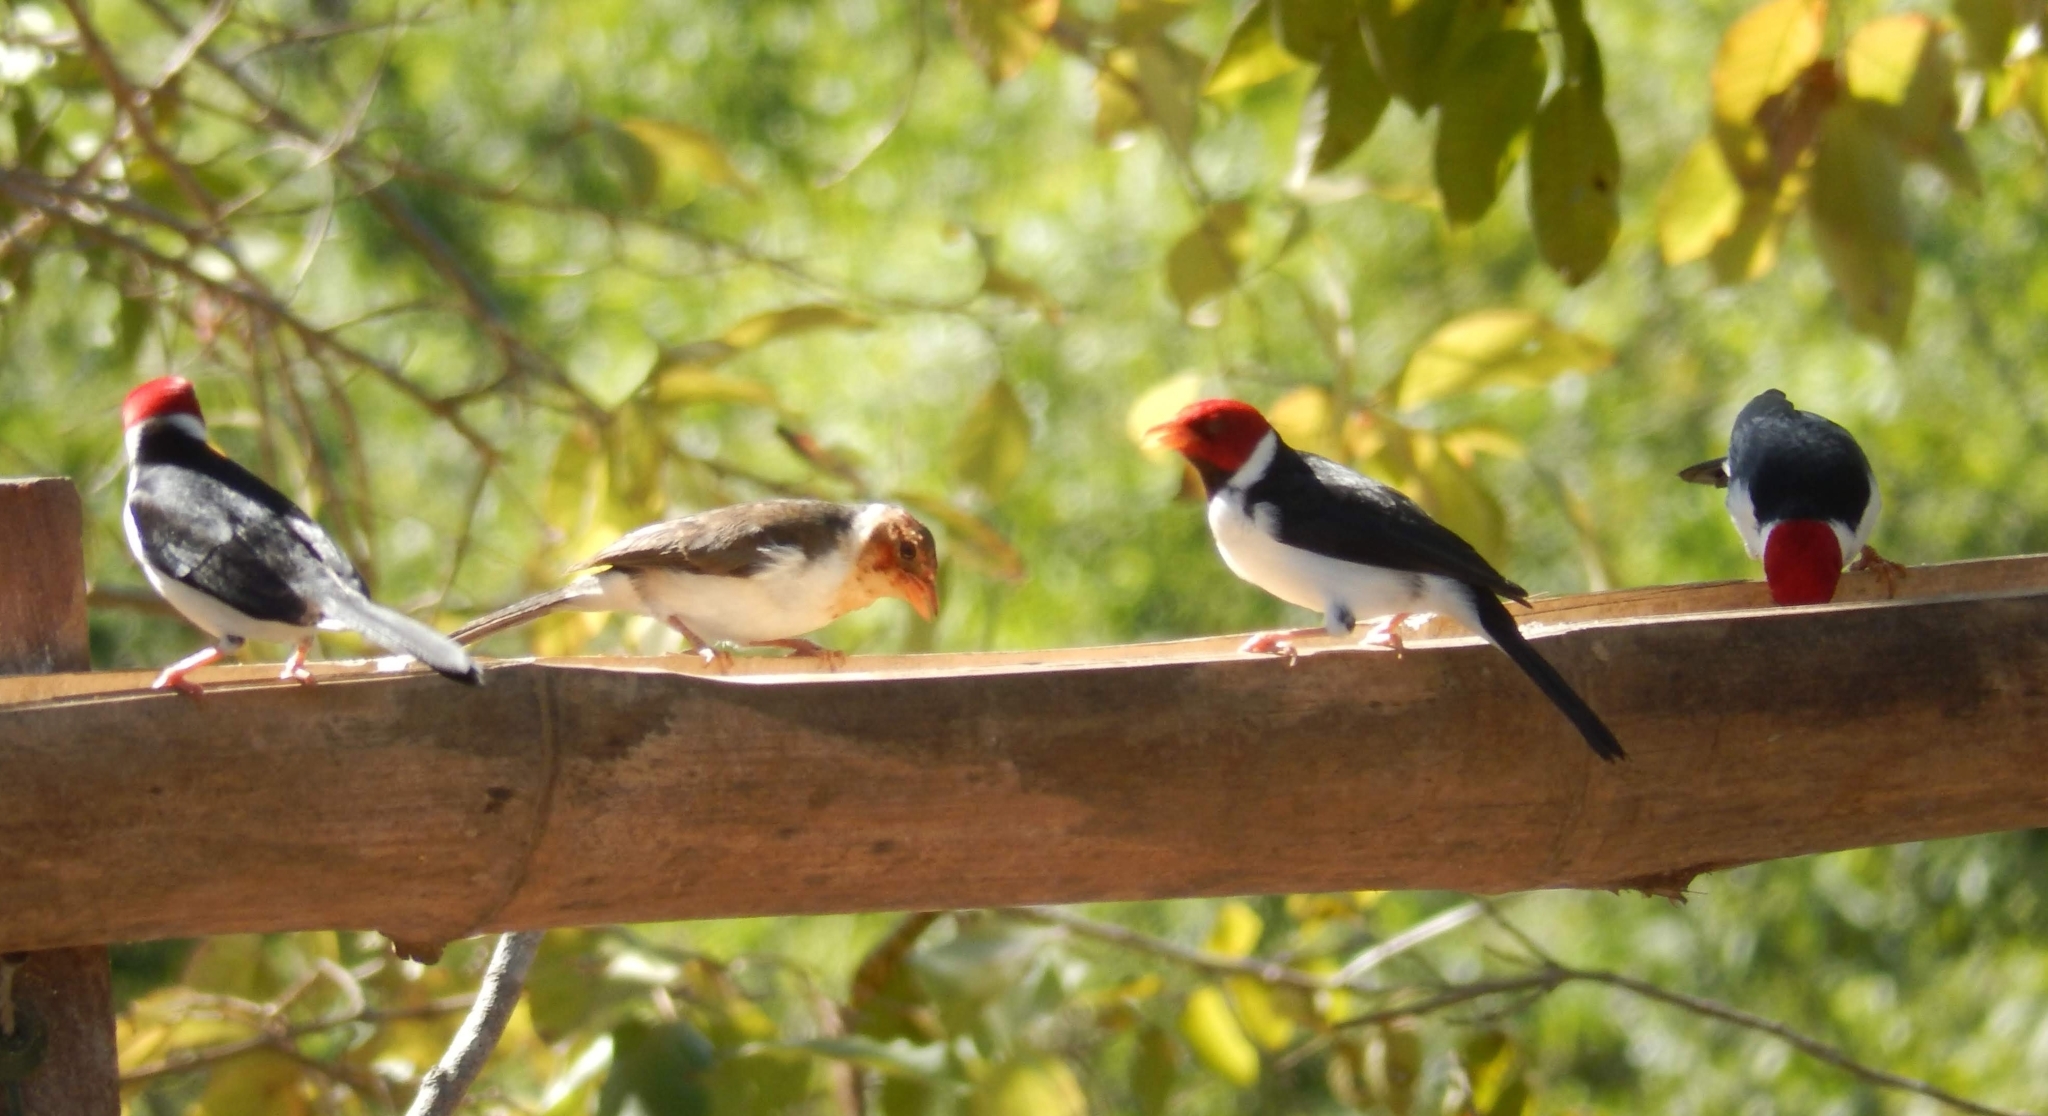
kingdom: Animalia
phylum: Chordata
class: Aves
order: Passeriformes
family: Thraupidae
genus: Paroaria
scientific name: Paroaria capitata
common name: Yellow-billed cardinal
